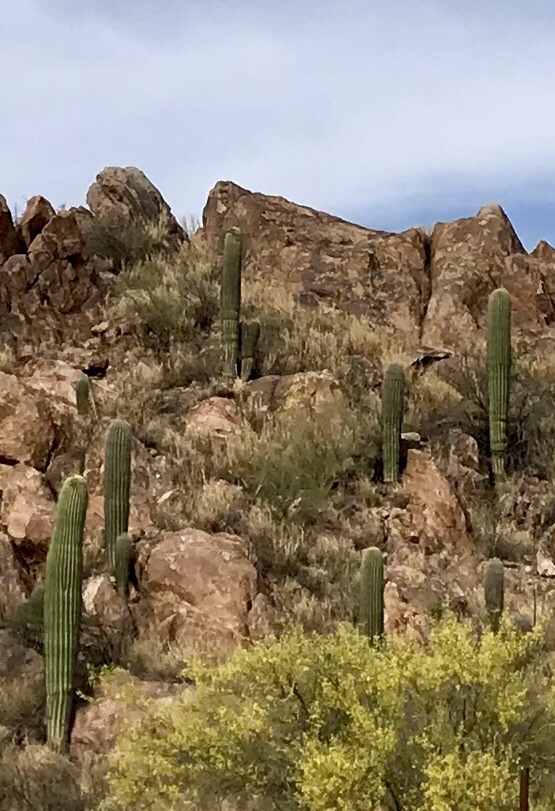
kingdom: Plantae
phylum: Tracheophyta
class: Magnoliopsida
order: Caryophyllales
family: Cactaceae
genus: Carnegiea
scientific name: Carnegiea gigantea
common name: Saguaro
